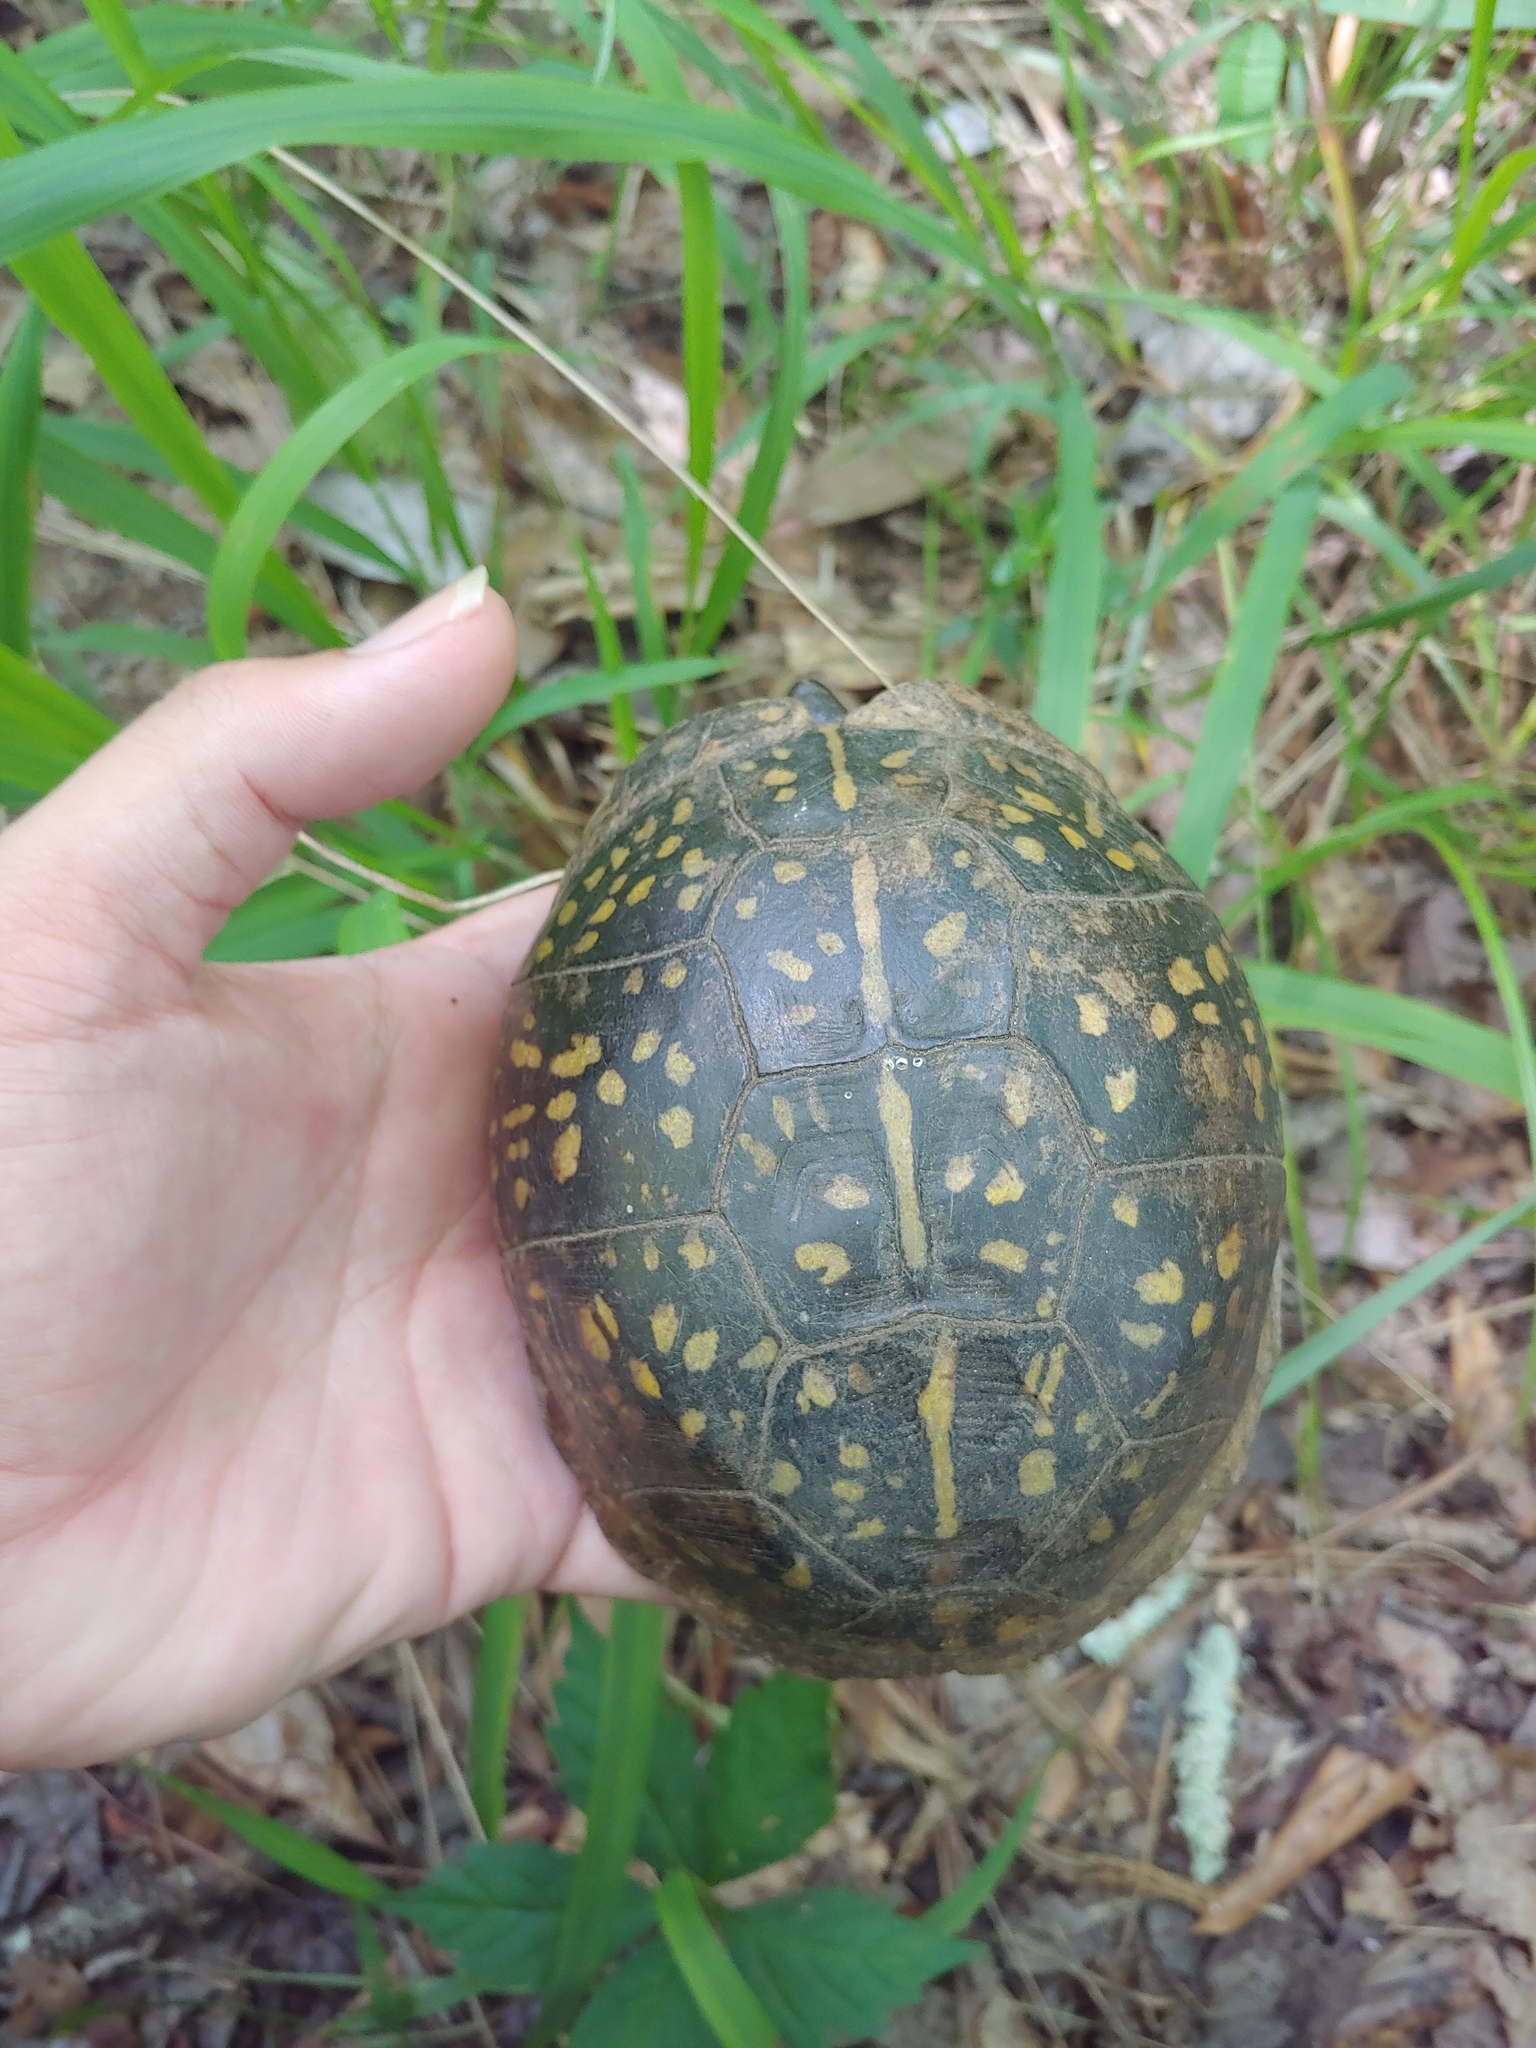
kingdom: Animalia
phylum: Chordata
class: Testudines
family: Emydidae
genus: Terrapene
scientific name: Terrapene carolina
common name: Common box turtle
